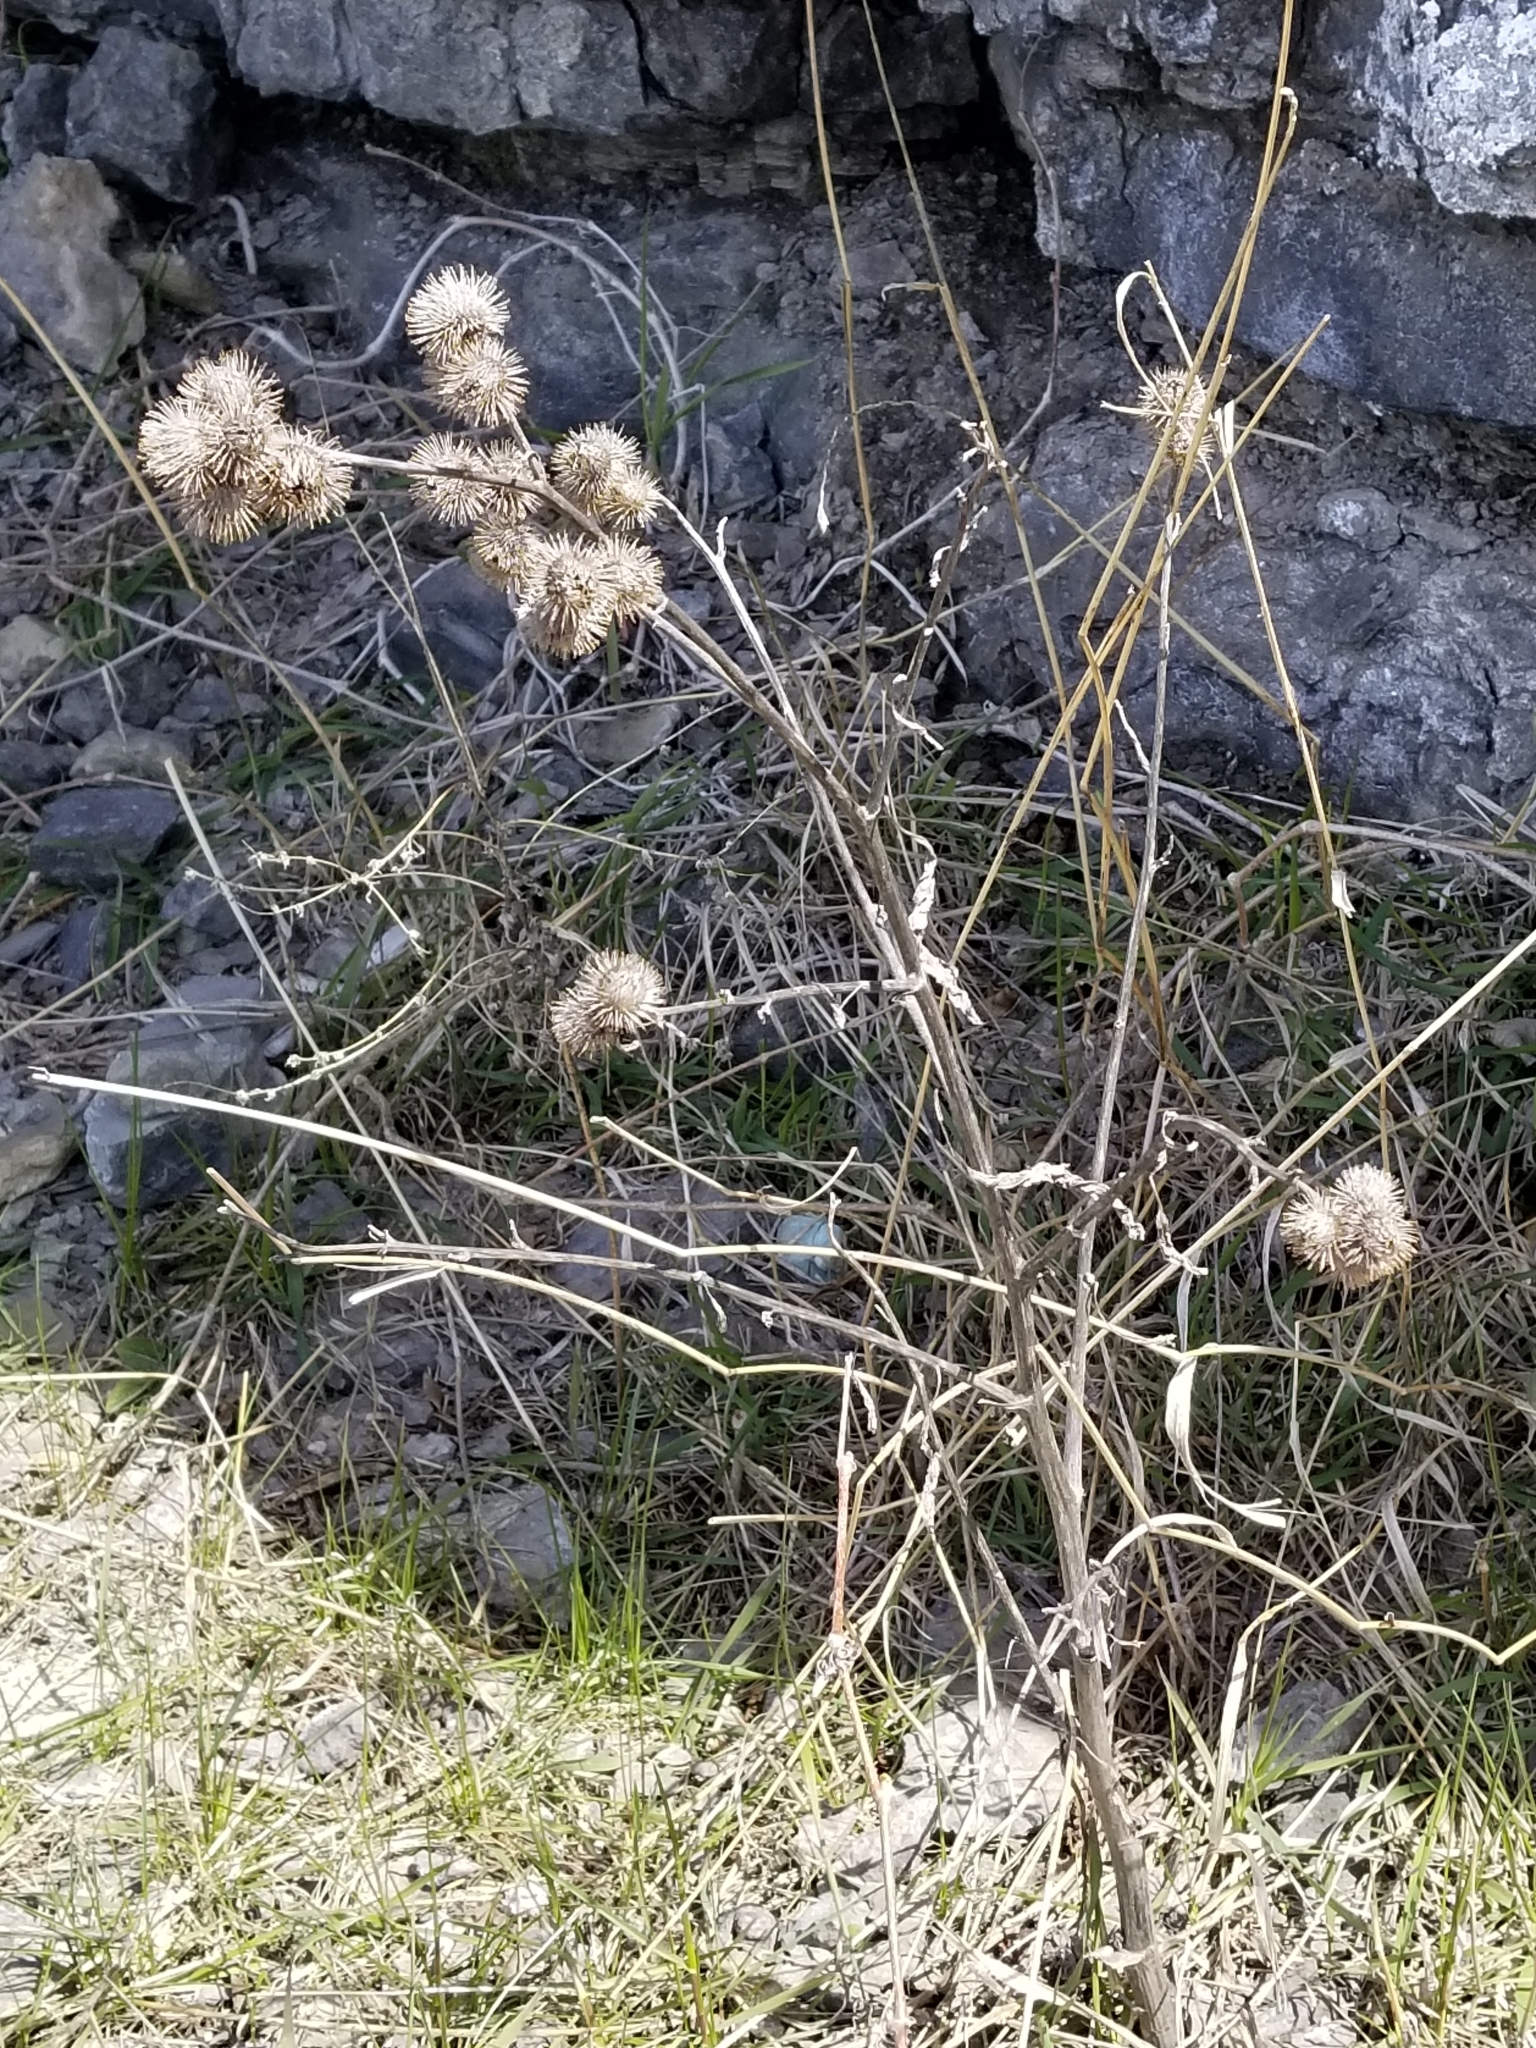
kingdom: Plantae
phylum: Tracheophyta
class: Magnoliopsida
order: Asterales
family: Asteraceae
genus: Arctium
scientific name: Arctium minus
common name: Lesser burdock
